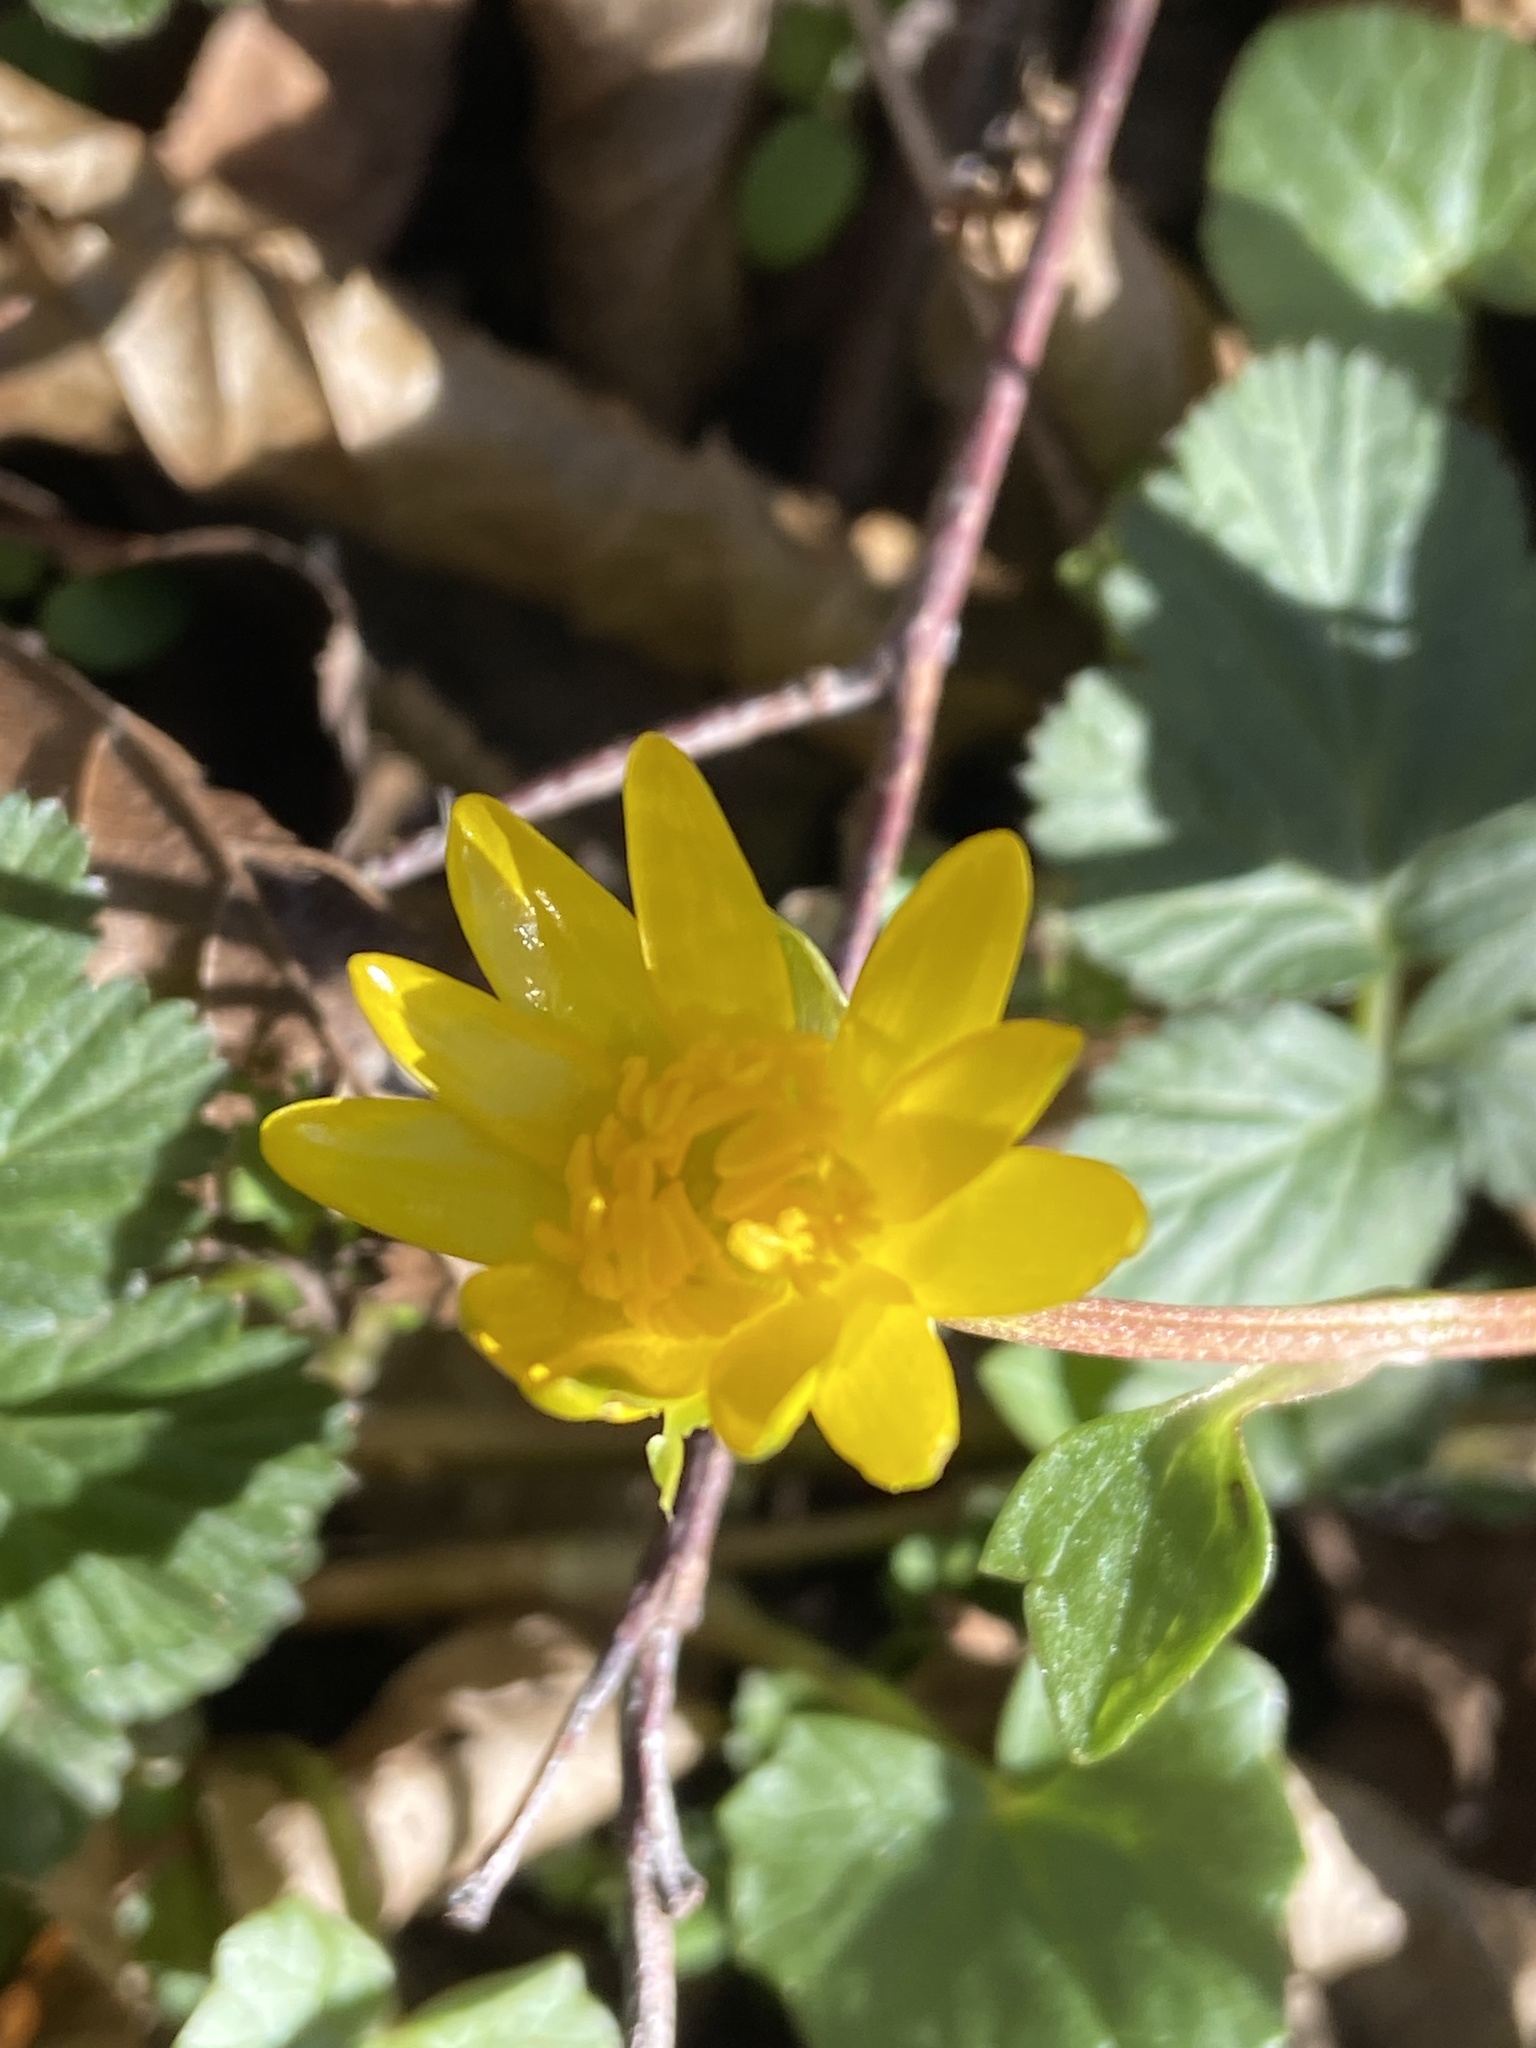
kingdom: Plantae
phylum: Tracheophyta
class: Magnoliopsida
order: Ranunculales
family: Ranunculaceae
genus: Ficaria
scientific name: Ficaria verna
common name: Lesser celandine
